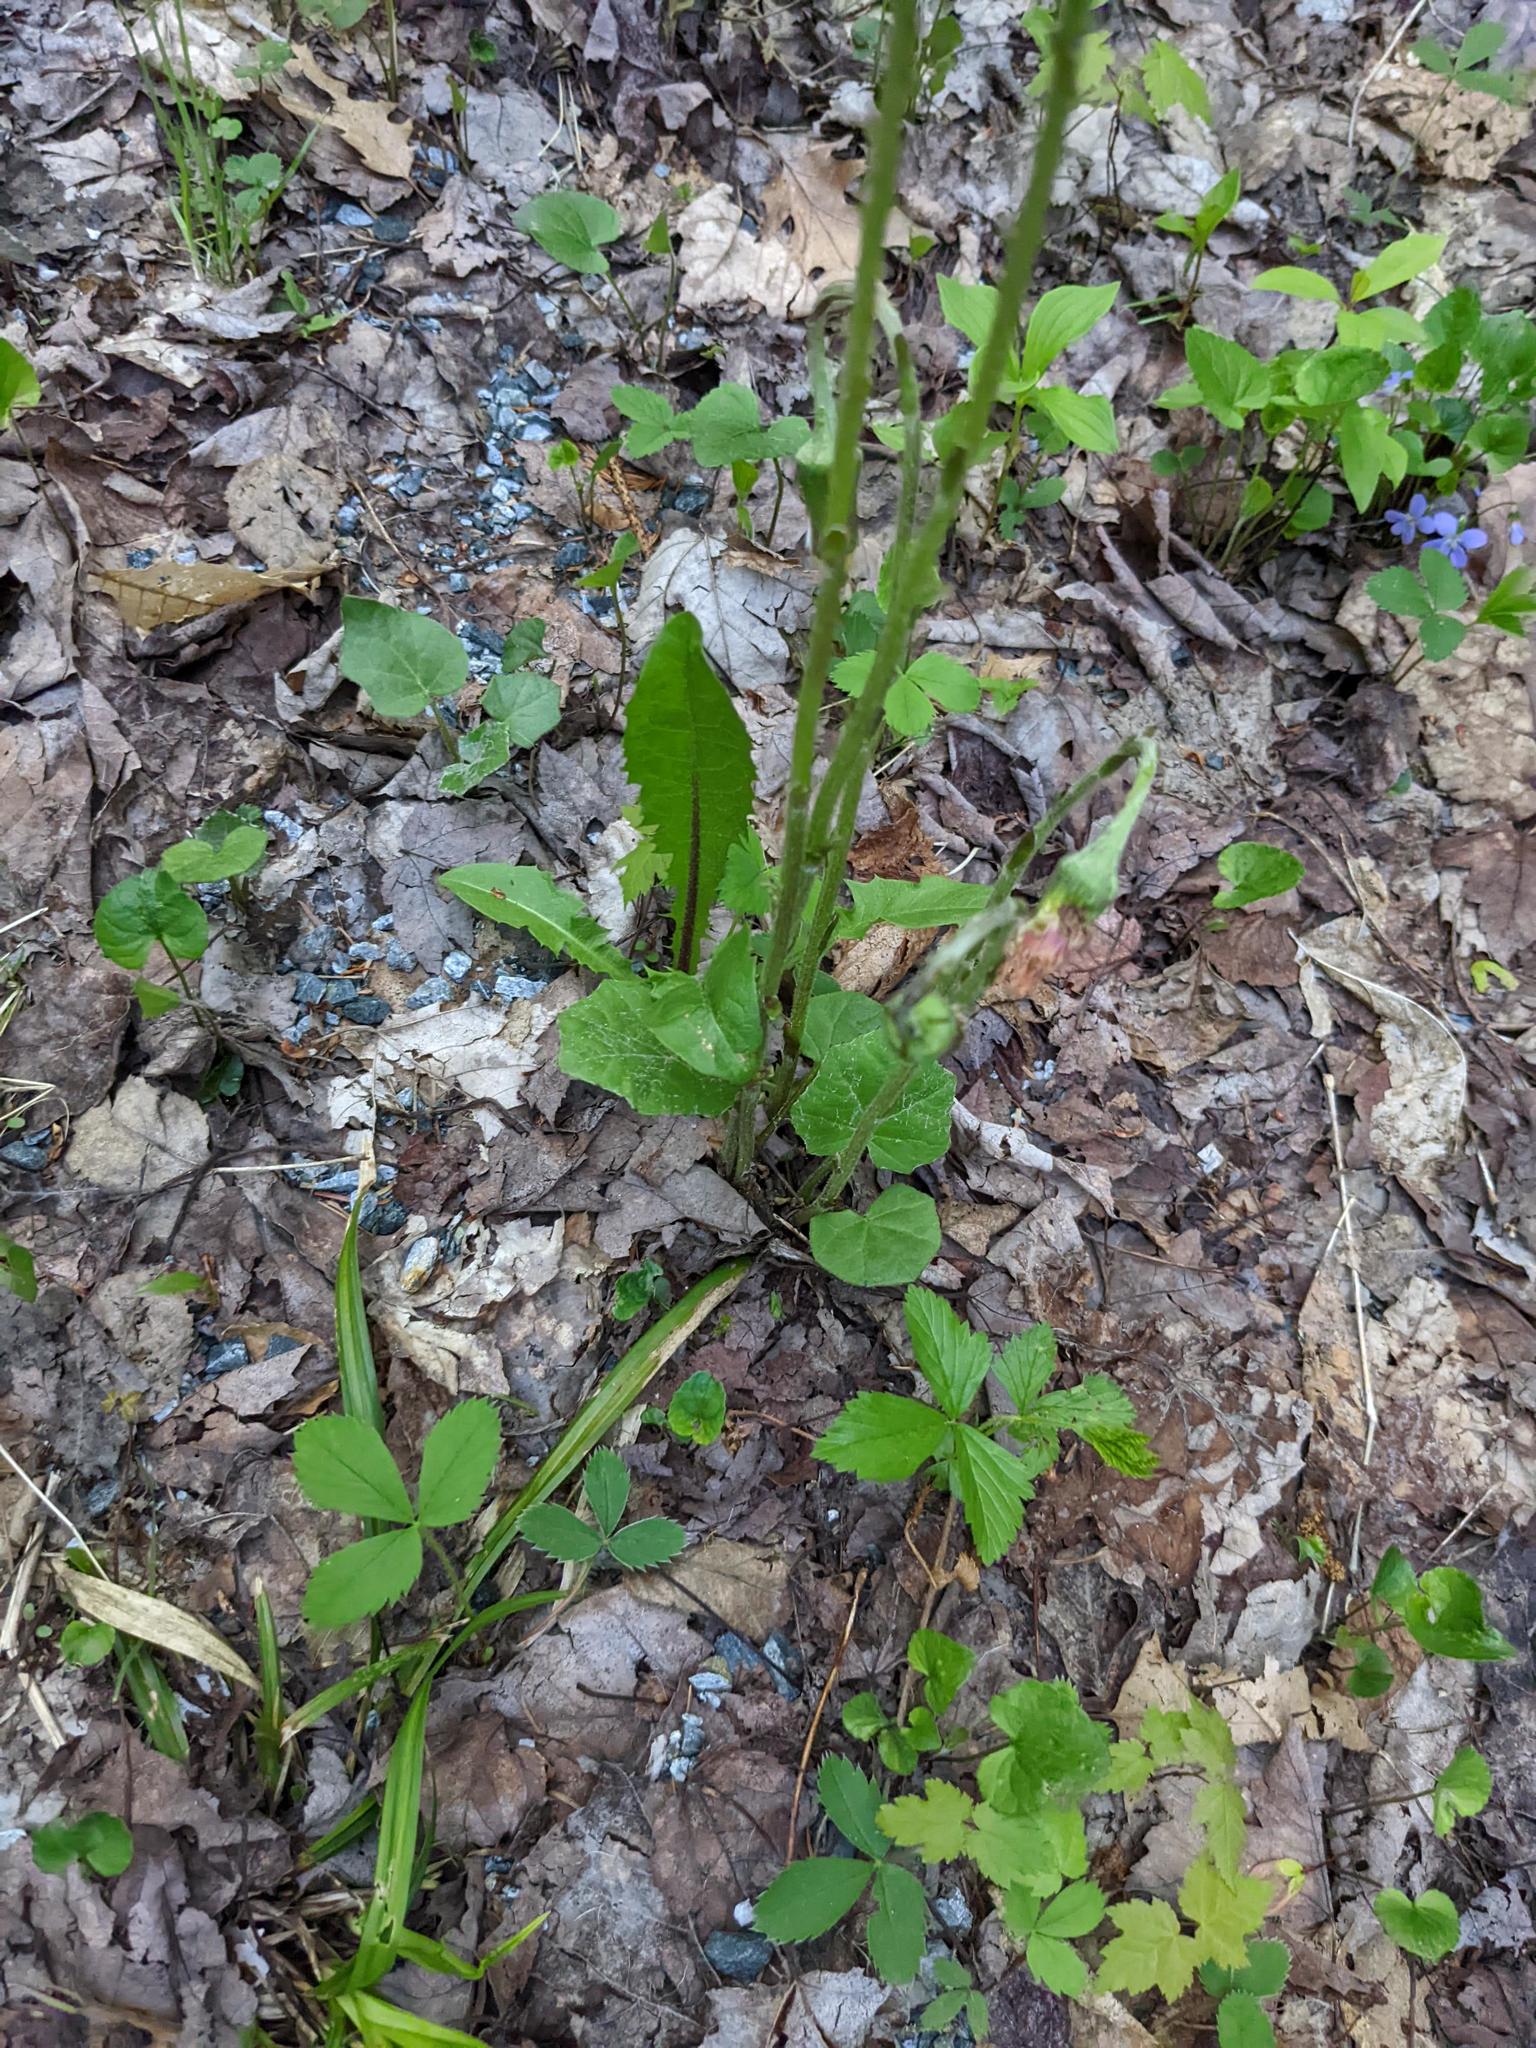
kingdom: Plantae
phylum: Tracheophyta
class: Magnoliopsida
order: Asterales
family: Asteraceae
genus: Tussilago
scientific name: Tussilago farfara
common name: Coltsfoot
